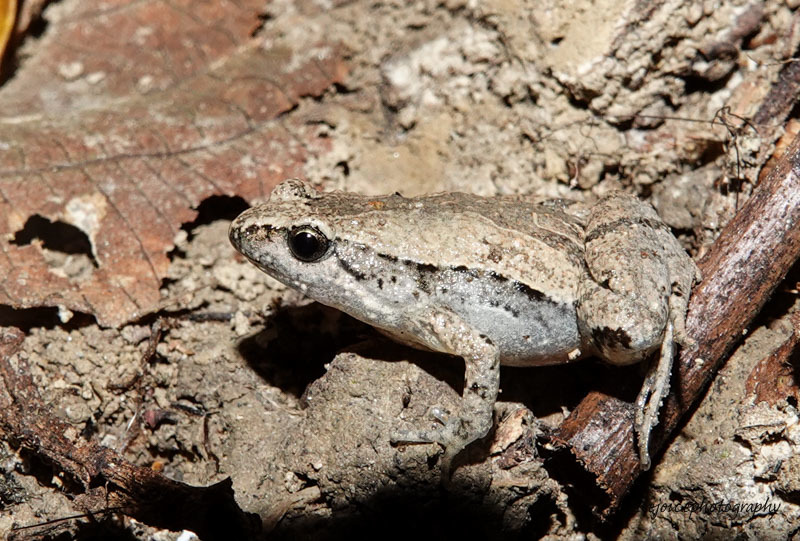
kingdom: Animalia
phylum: Chordata
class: Amphibia
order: Anura
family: Microhylidae
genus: Microhyla
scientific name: Microhyla mymensinghensis
